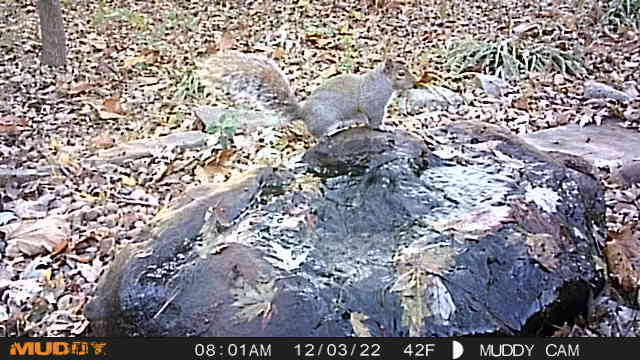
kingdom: Animalia
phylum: Chordata
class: Mammalia
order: Rodentia
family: Sciuridae
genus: Sciurus
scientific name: Sciurus carolinensis
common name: Eastern gray squirrel
